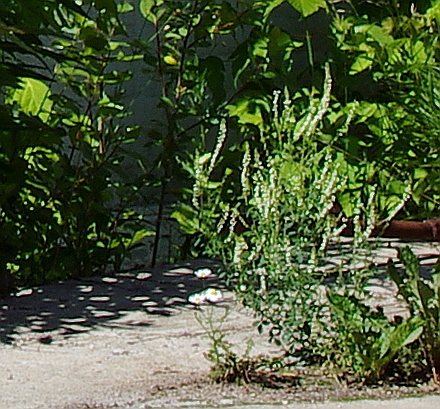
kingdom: Plantae
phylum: Tracheophyta
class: Magnoliopsida
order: Fabales
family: Fabaceae
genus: Melilotus
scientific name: Melilotus albus
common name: White melilot
